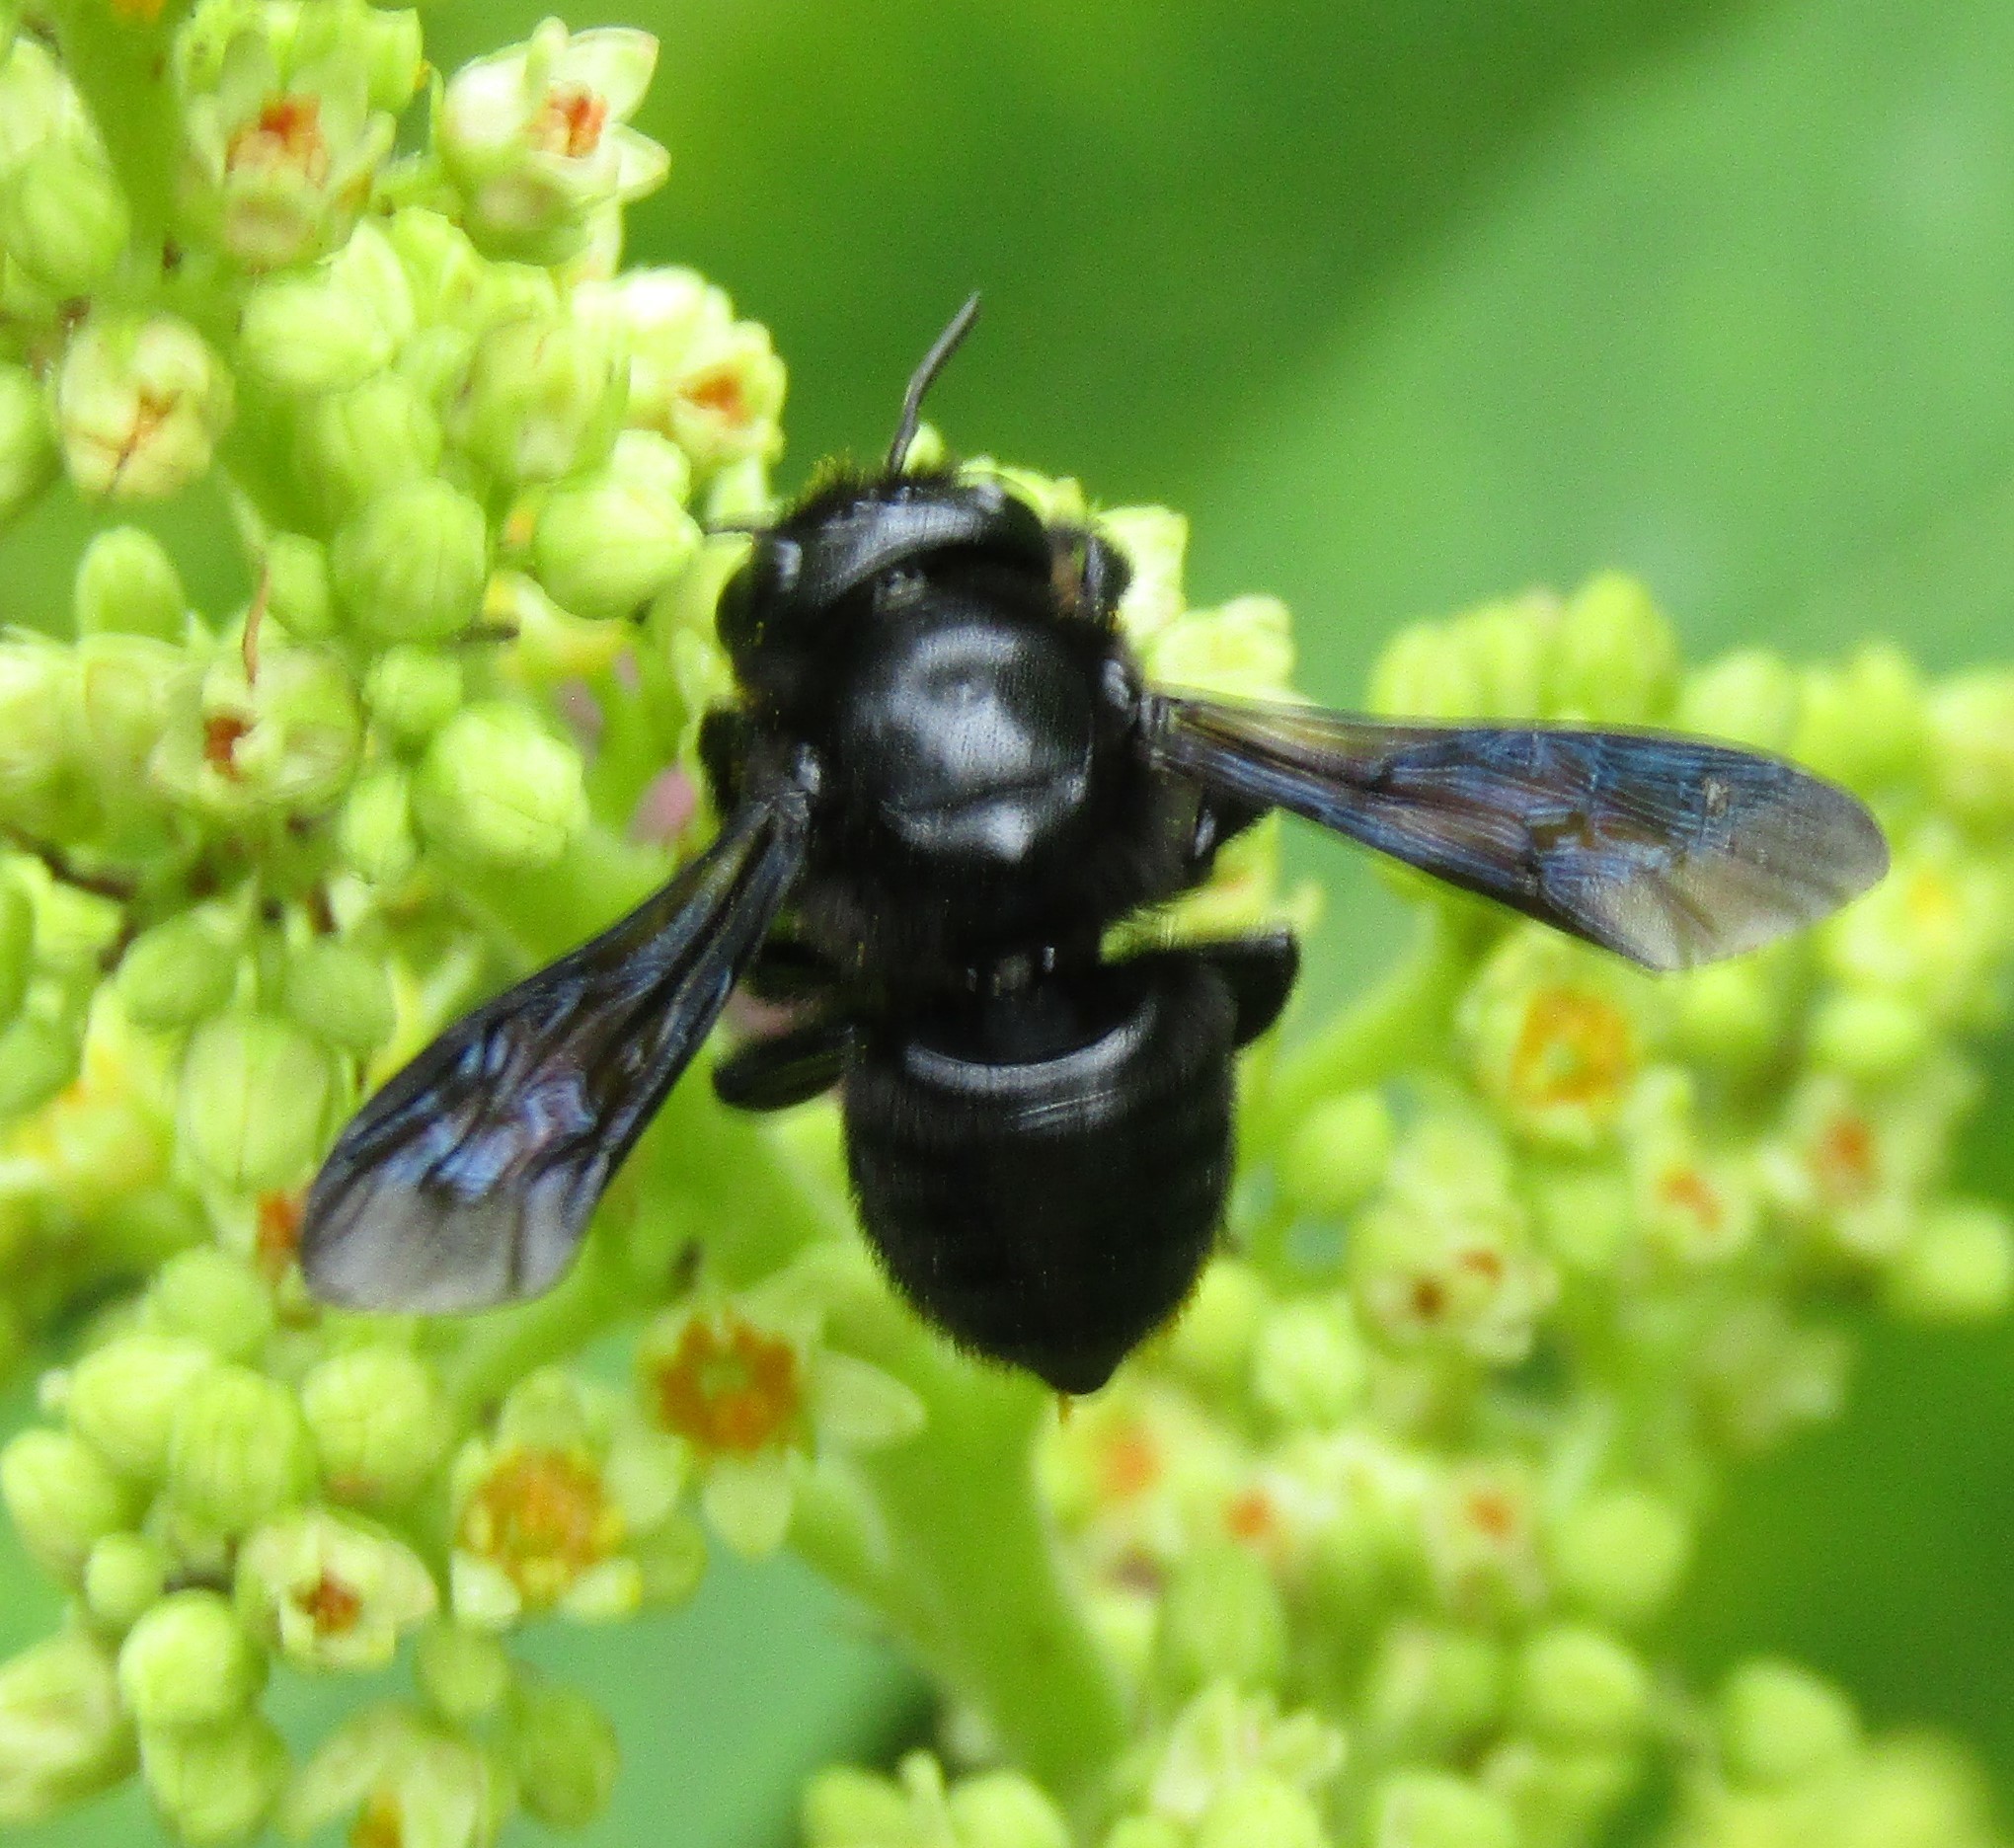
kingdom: Animalia
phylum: Arthropoda
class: Insecta
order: Hymenoptera
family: Megachilidae
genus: Megachile
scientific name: Megachile xylocopoides
